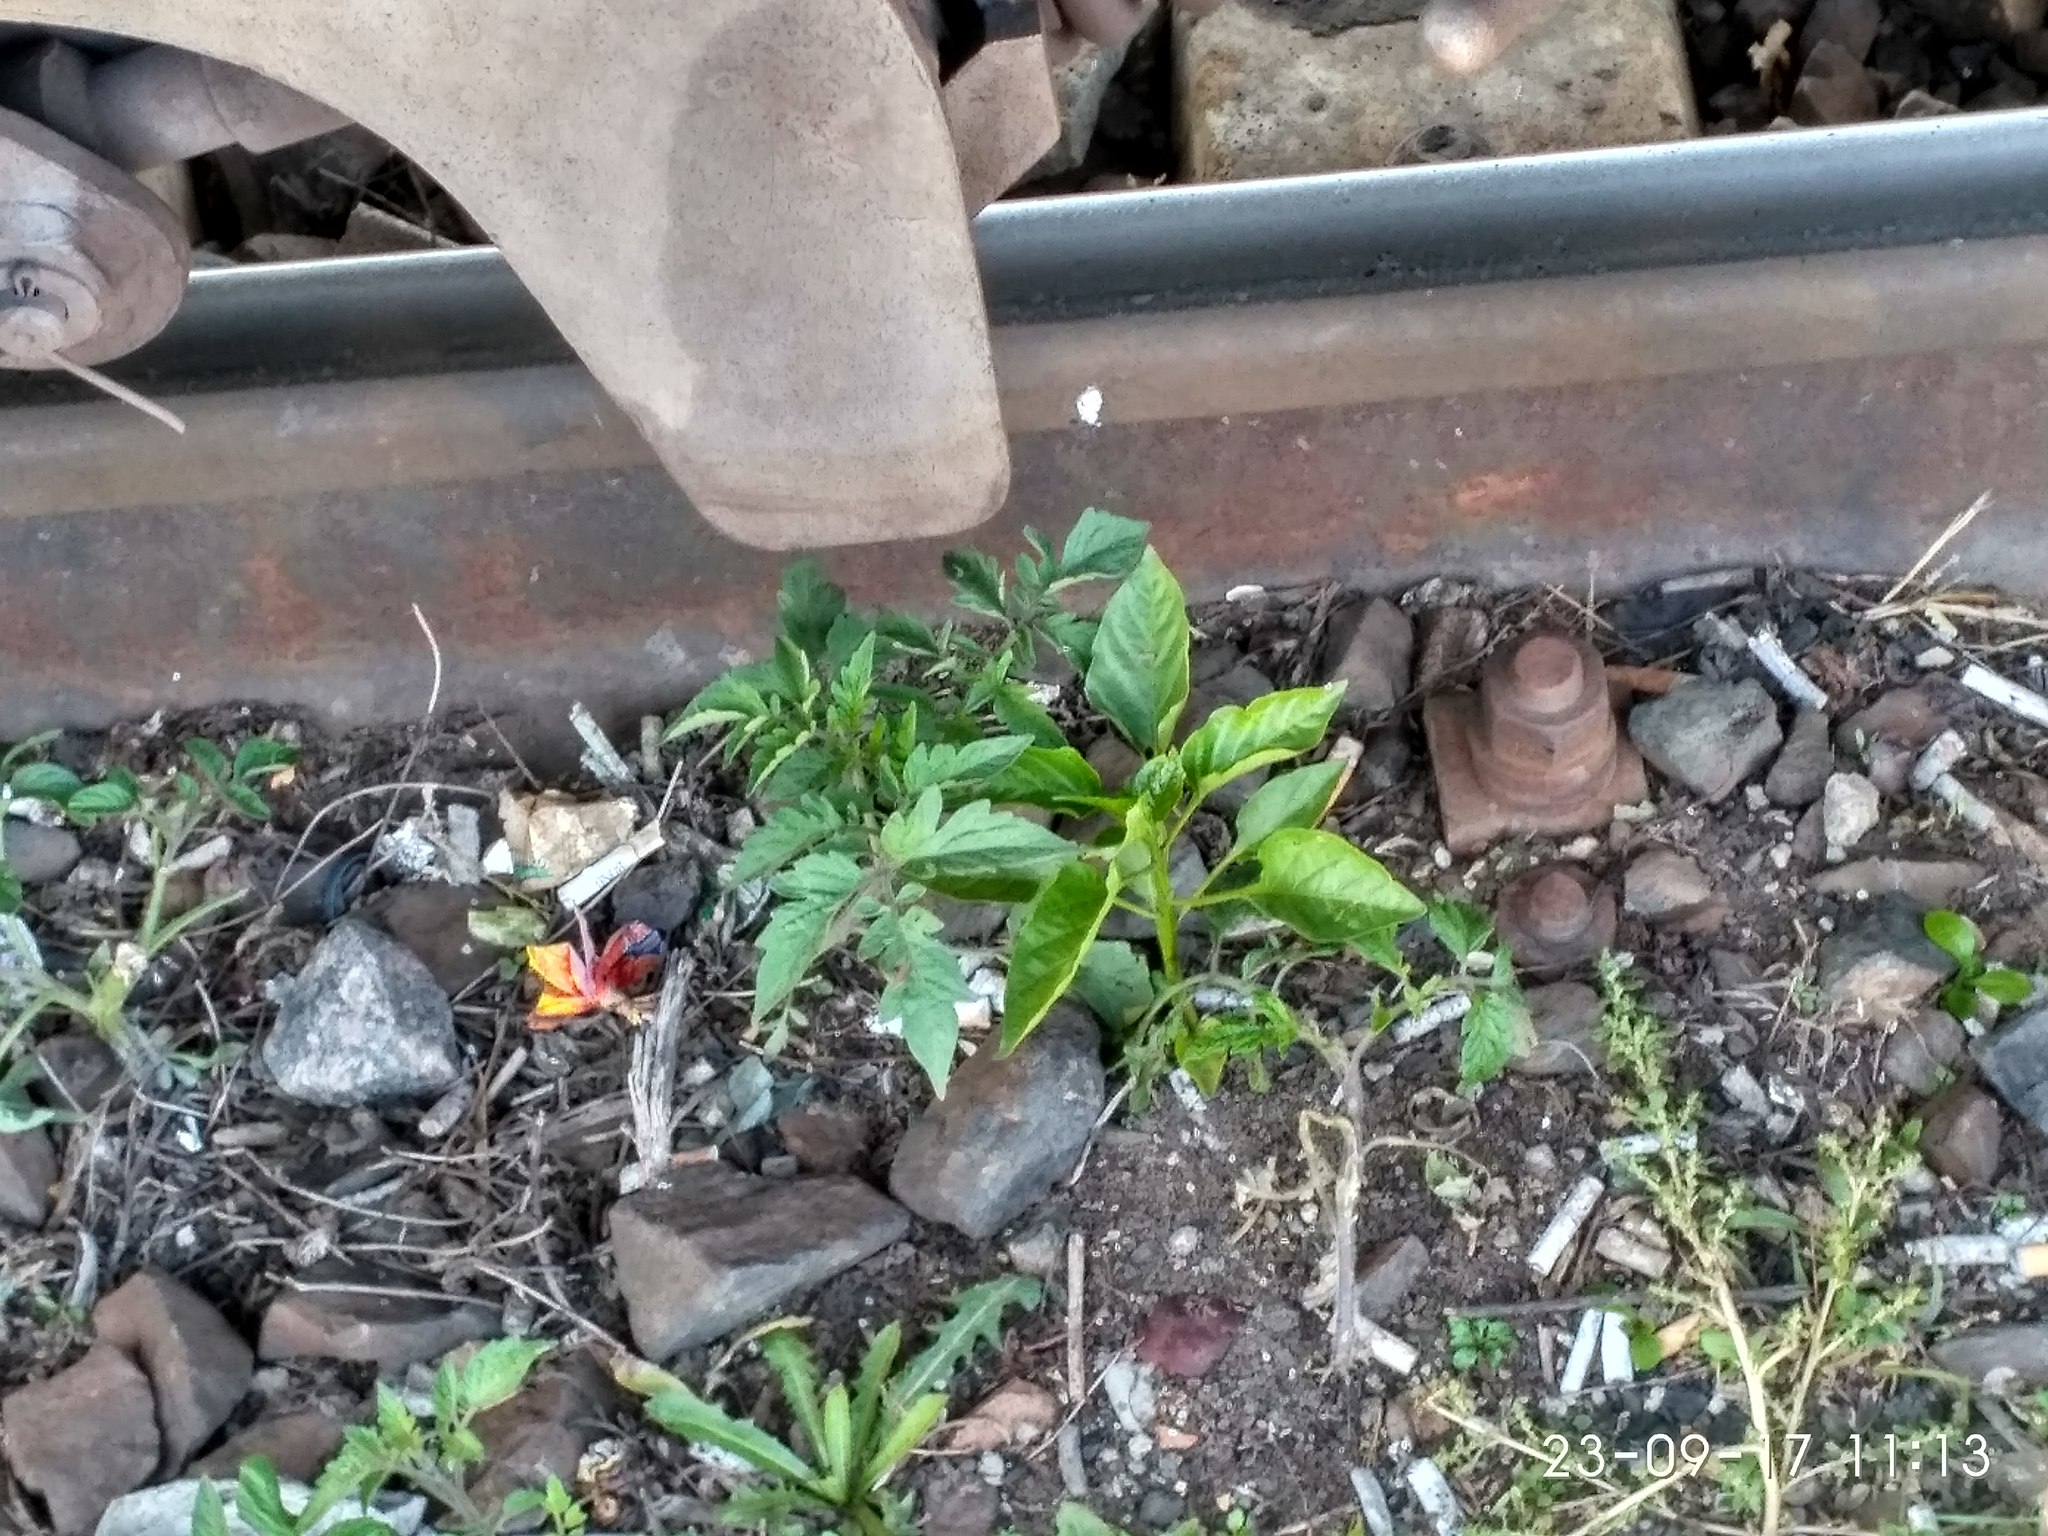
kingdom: Plantae
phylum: Tracheophyta
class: Magnoliopsida
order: Solanales
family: Solanaceae
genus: Solanum
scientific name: Solanum lycopersicum
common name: Garden tomato
